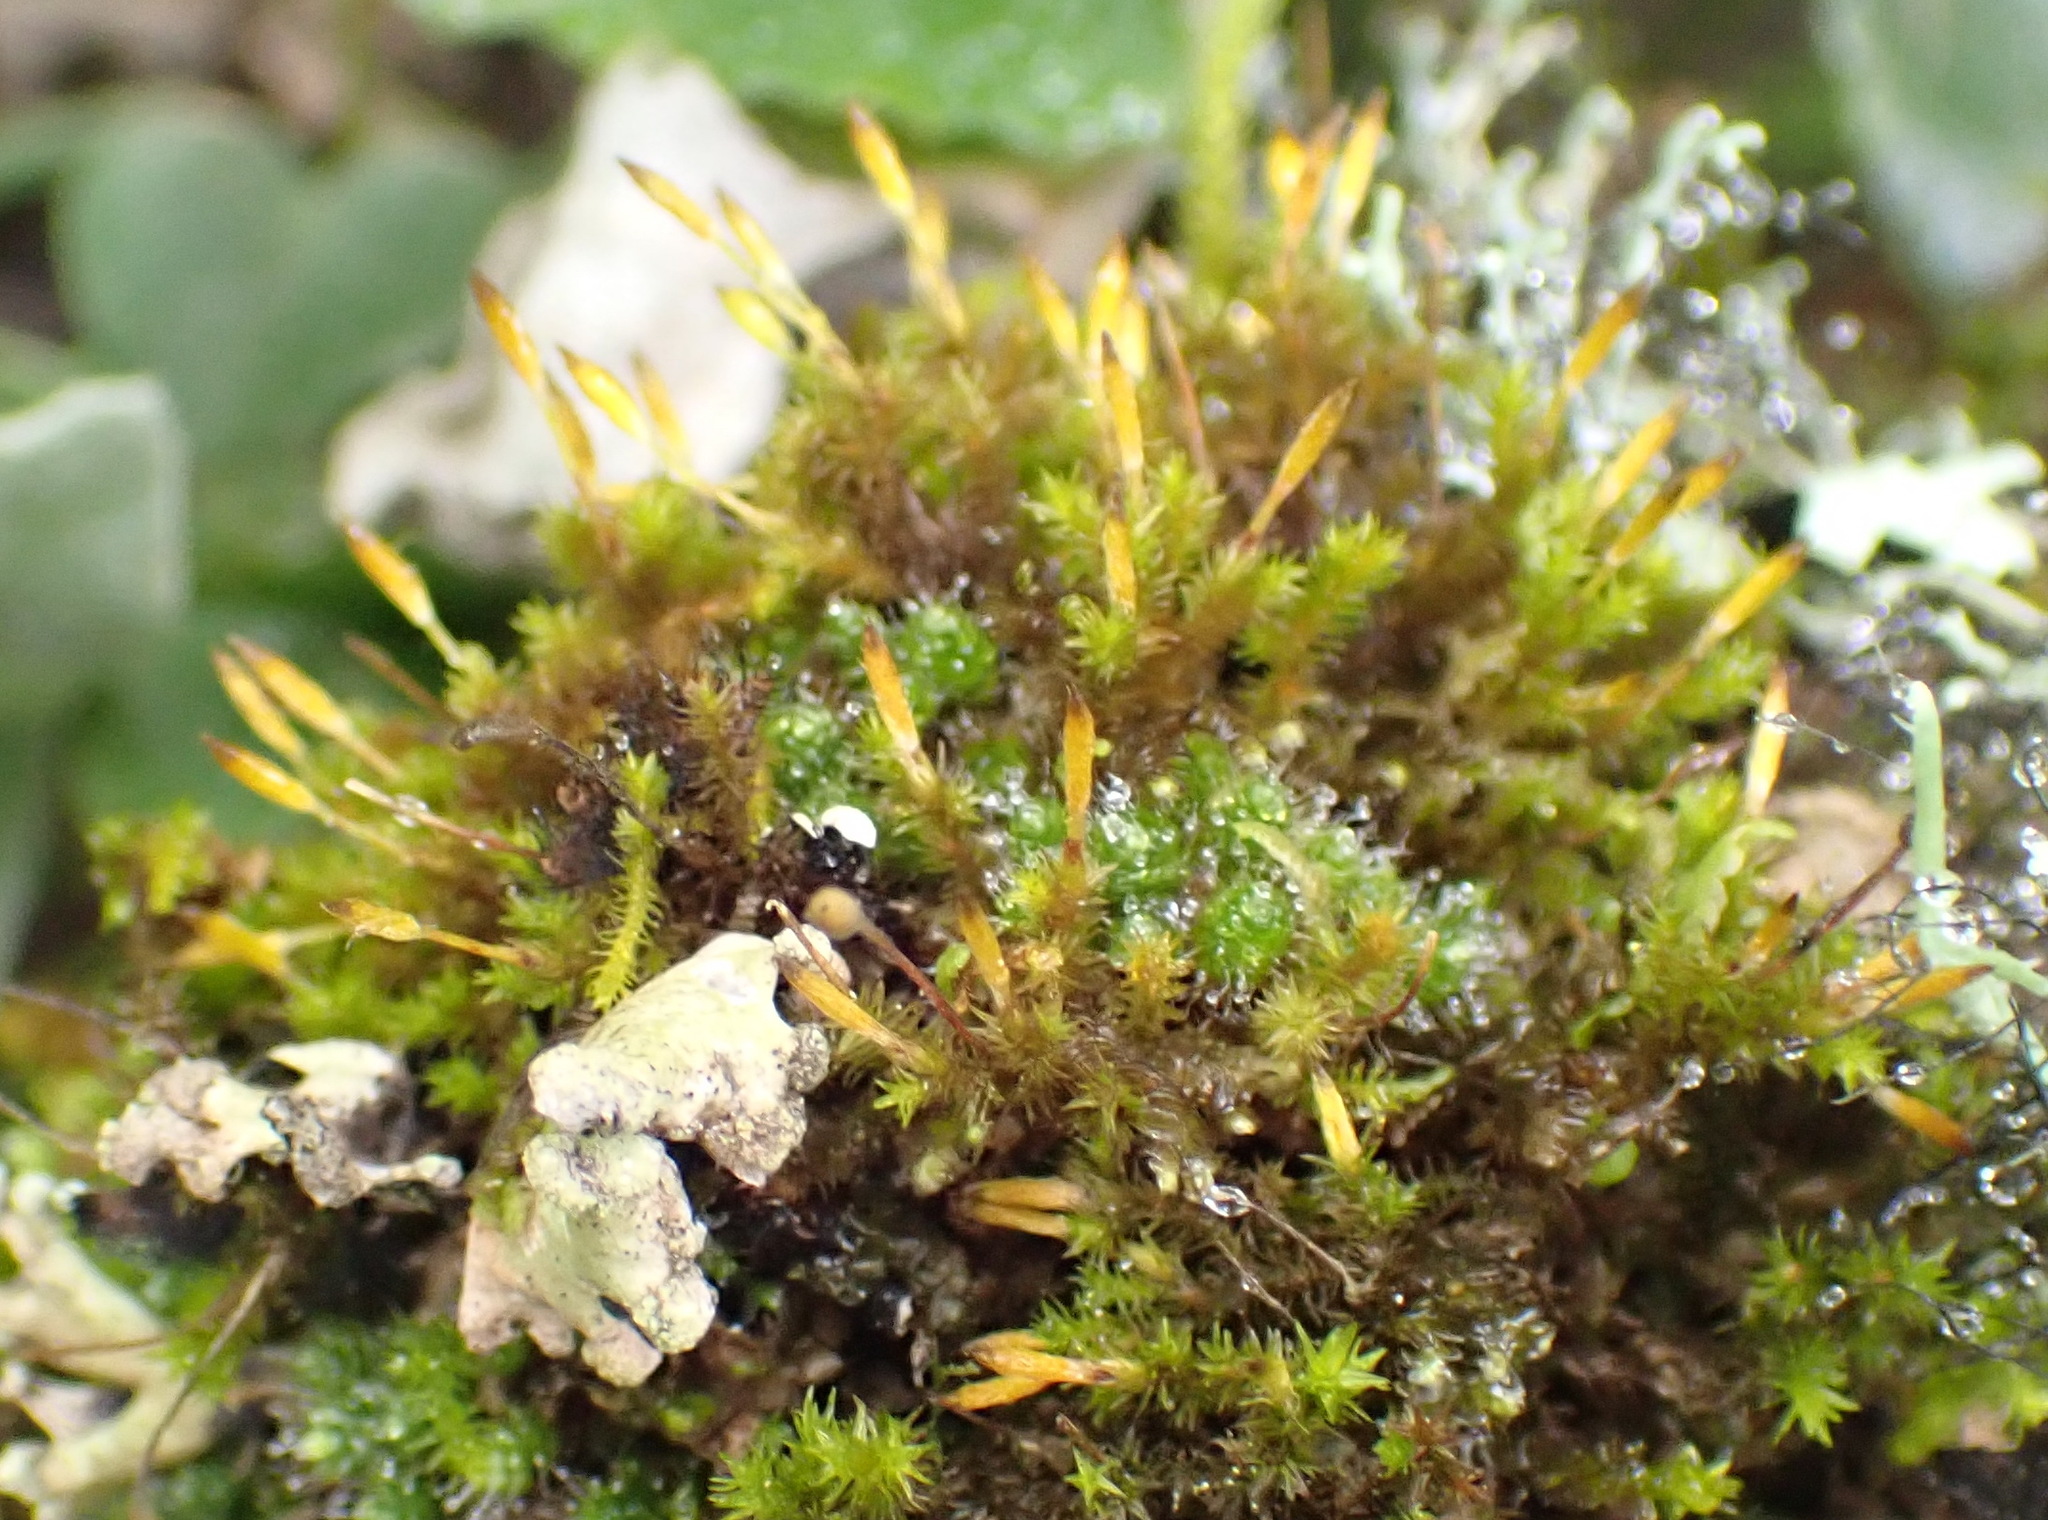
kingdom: Plantae
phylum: Bryophyta
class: Bryopsida
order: Orthotrichales
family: Orthotrichaceae
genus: Macrocoma
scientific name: Macrocoma tenuis
